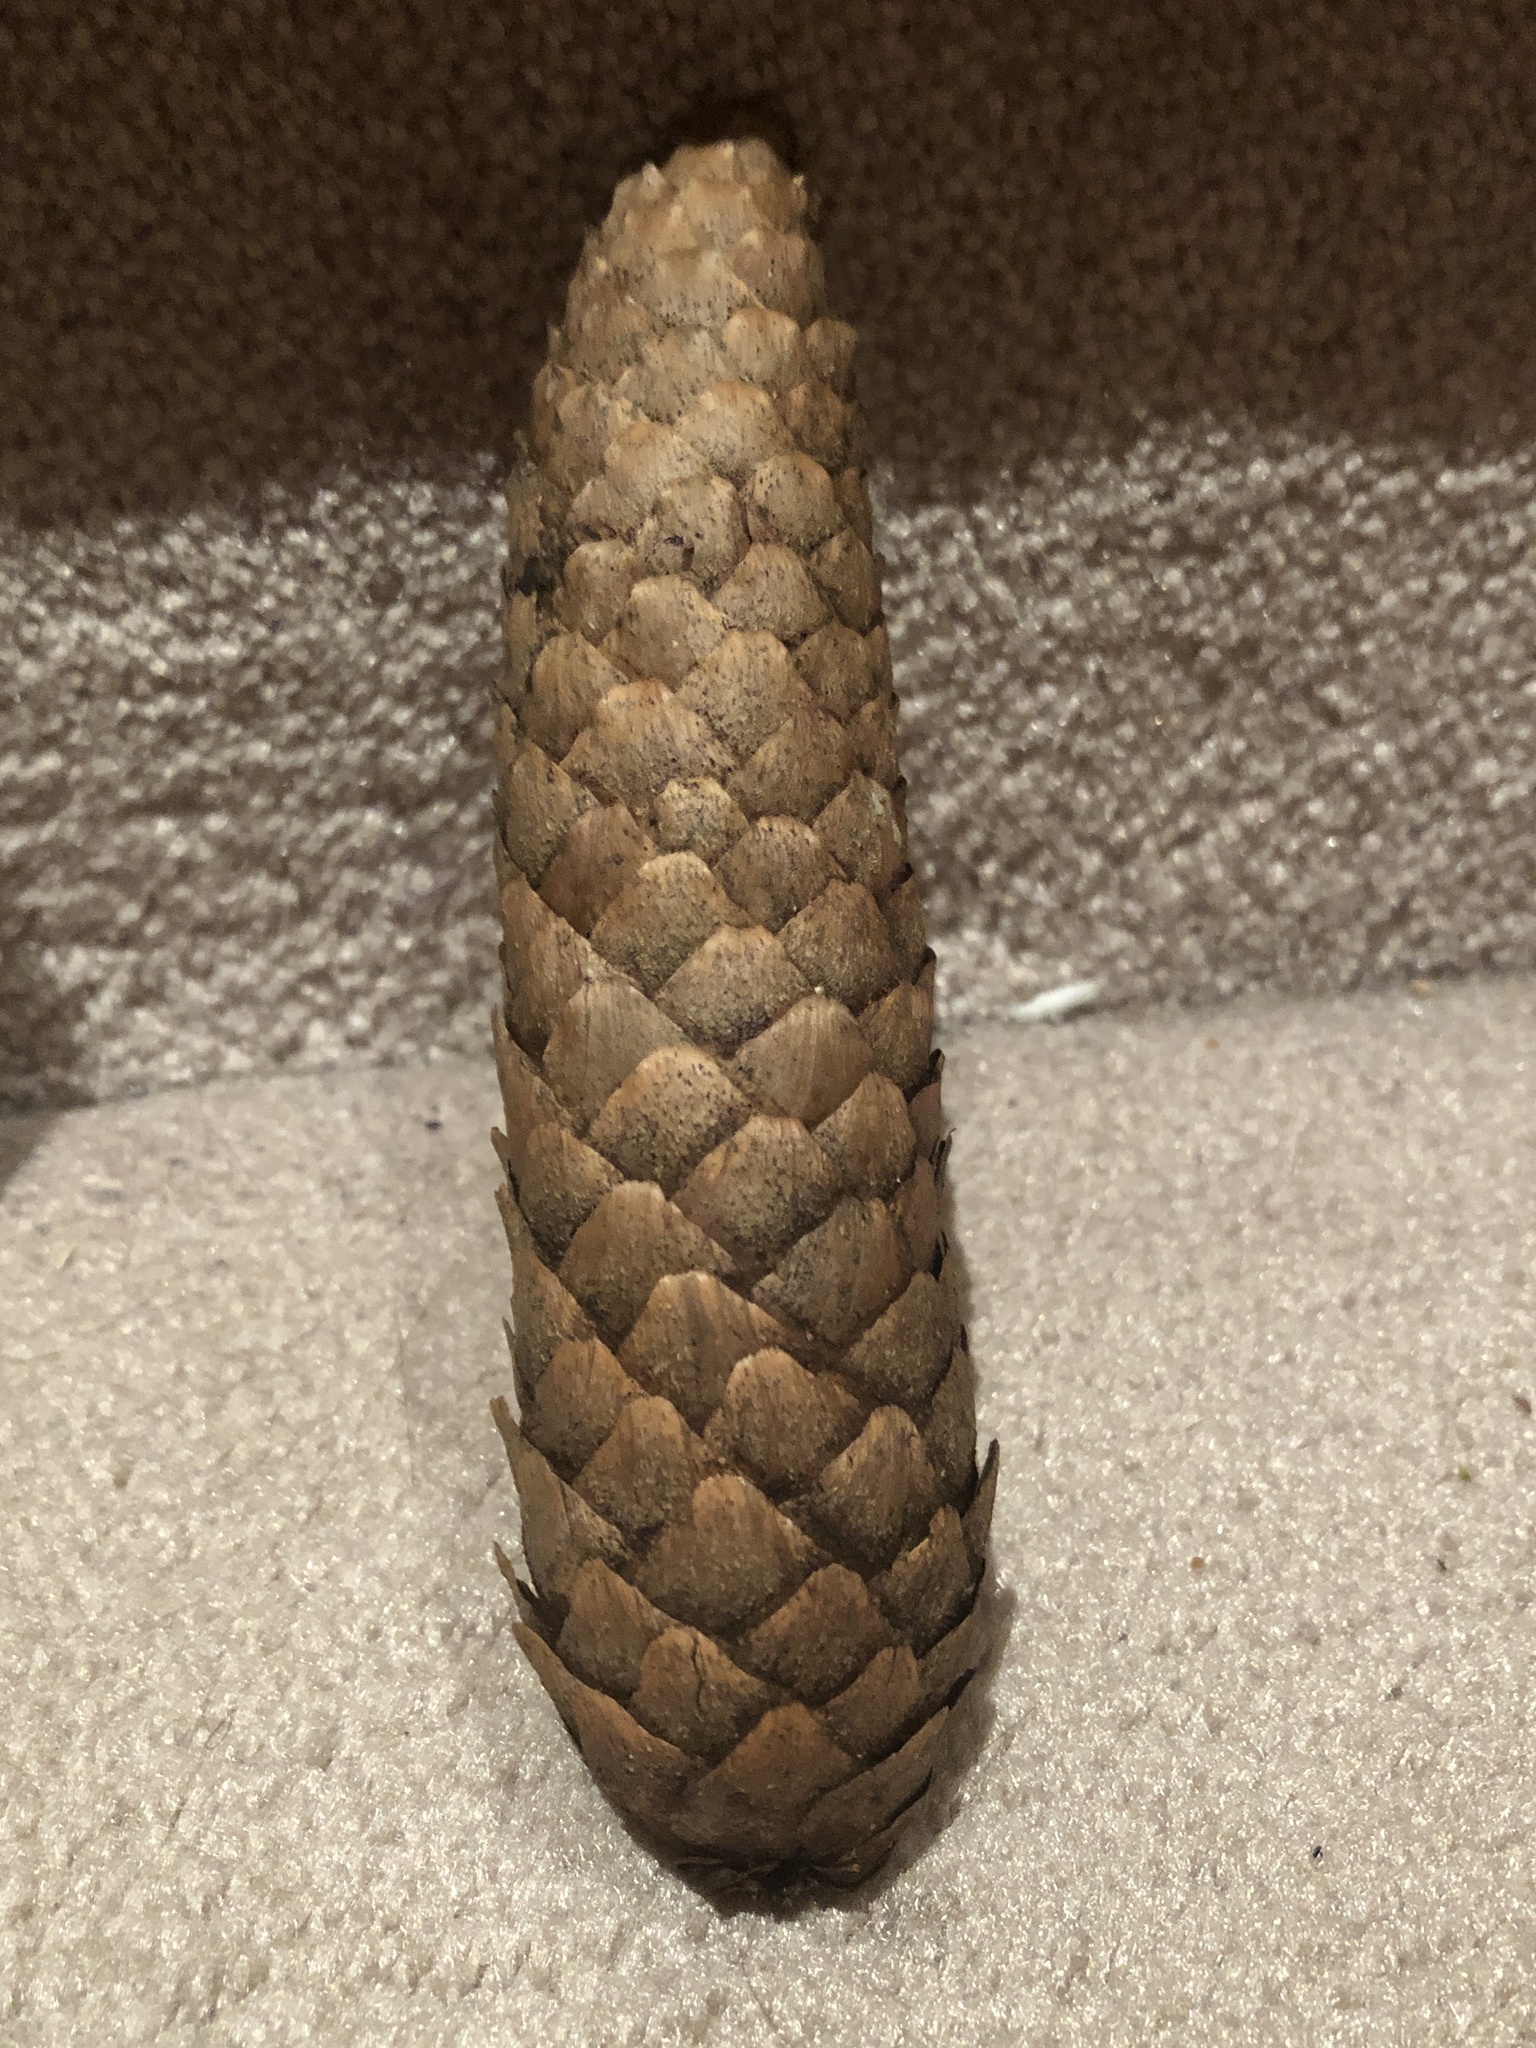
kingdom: Plantae
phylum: Tracheophyta
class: Pinopsida
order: Pinales
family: Pinaceae
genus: Picea
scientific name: Picea abies
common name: Norway spruce
